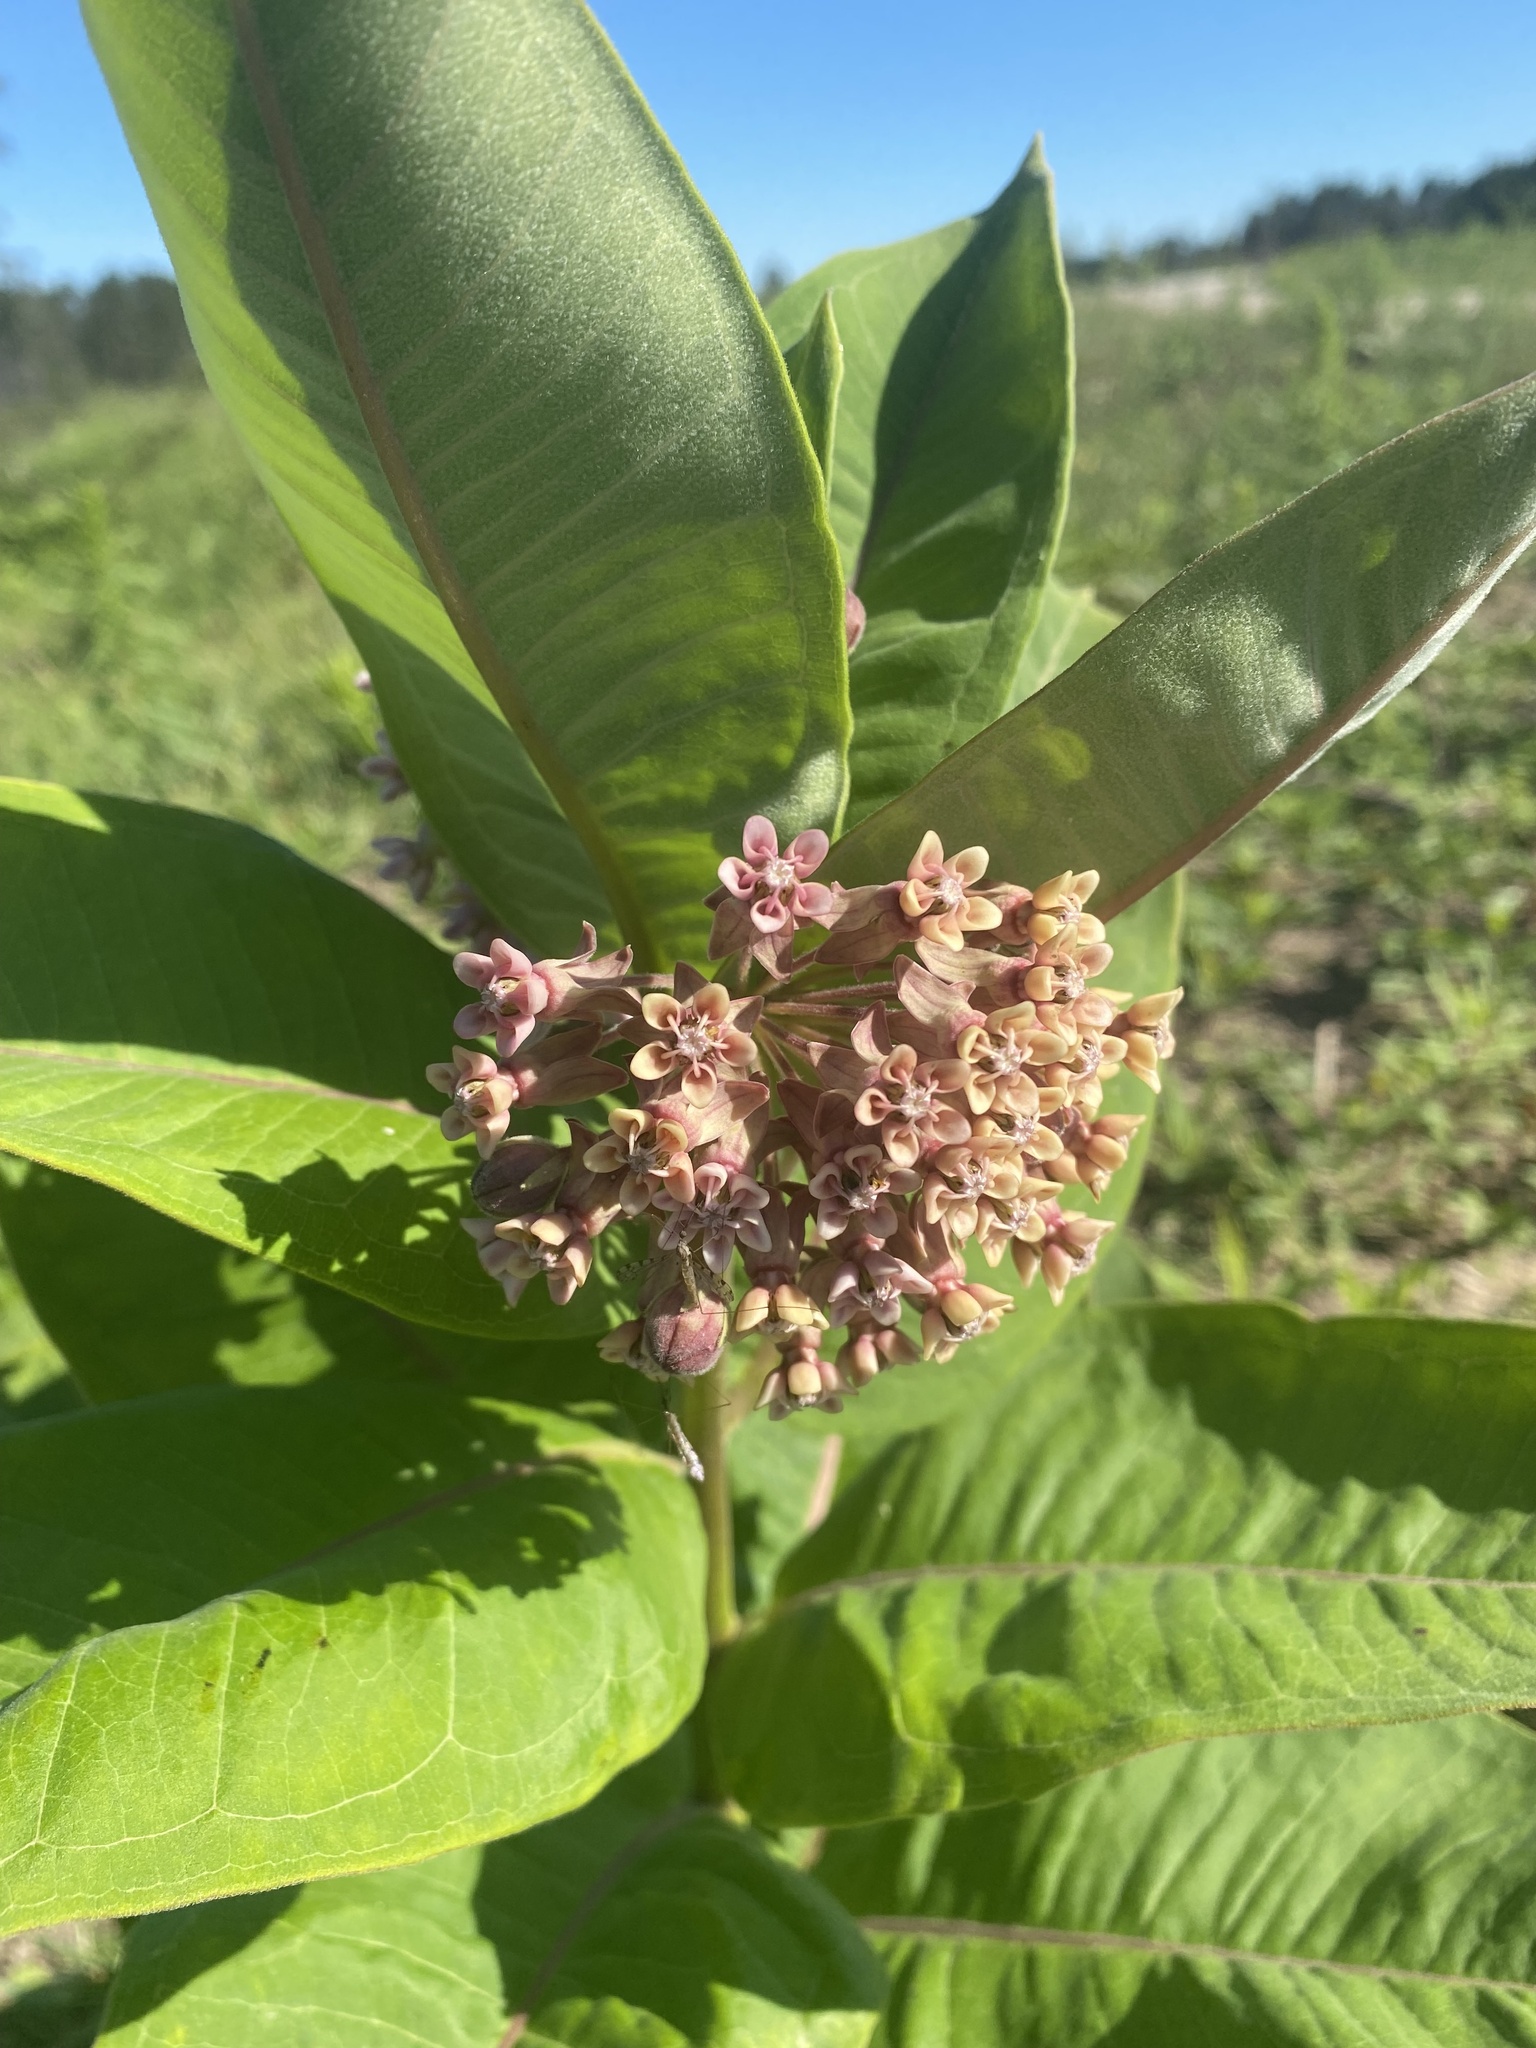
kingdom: Plantae
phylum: Tracheophyta
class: Magnoliopsida
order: Gentianales
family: Apocynaceae
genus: Asclepias
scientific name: Asclepias syriaca
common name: Common milkweed
